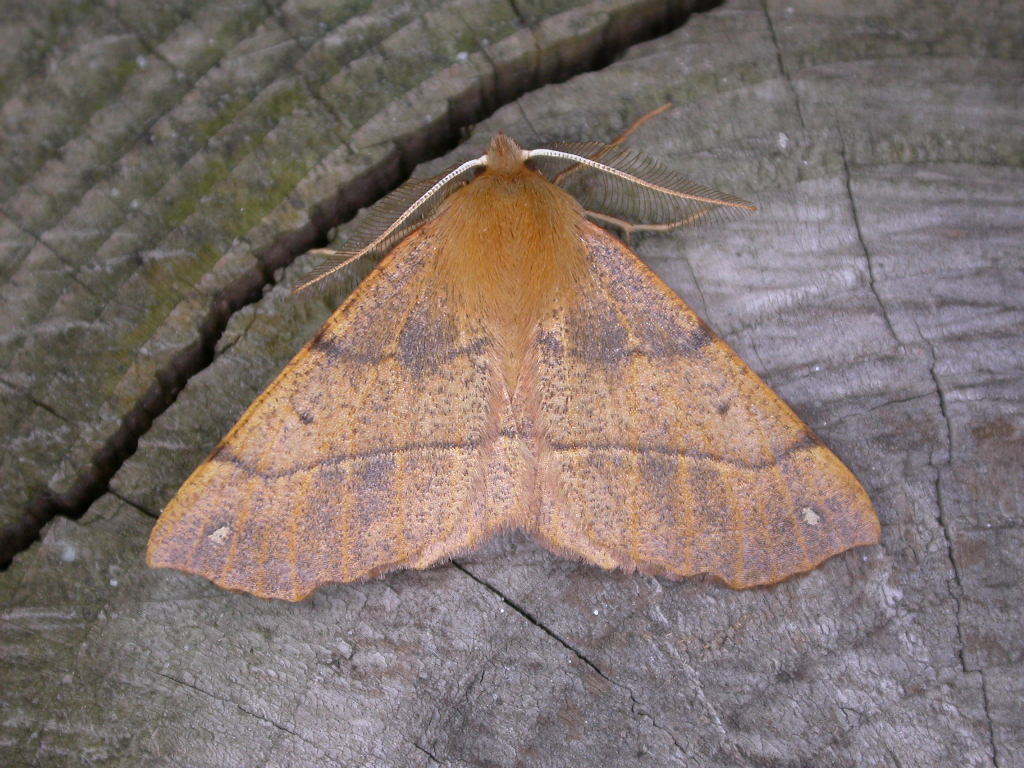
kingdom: Animalia
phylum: Arthropoda
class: Insecta
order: Lepidoptera
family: Geometridae
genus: Colotois
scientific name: Colotois pennaria
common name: Feathered thorn
